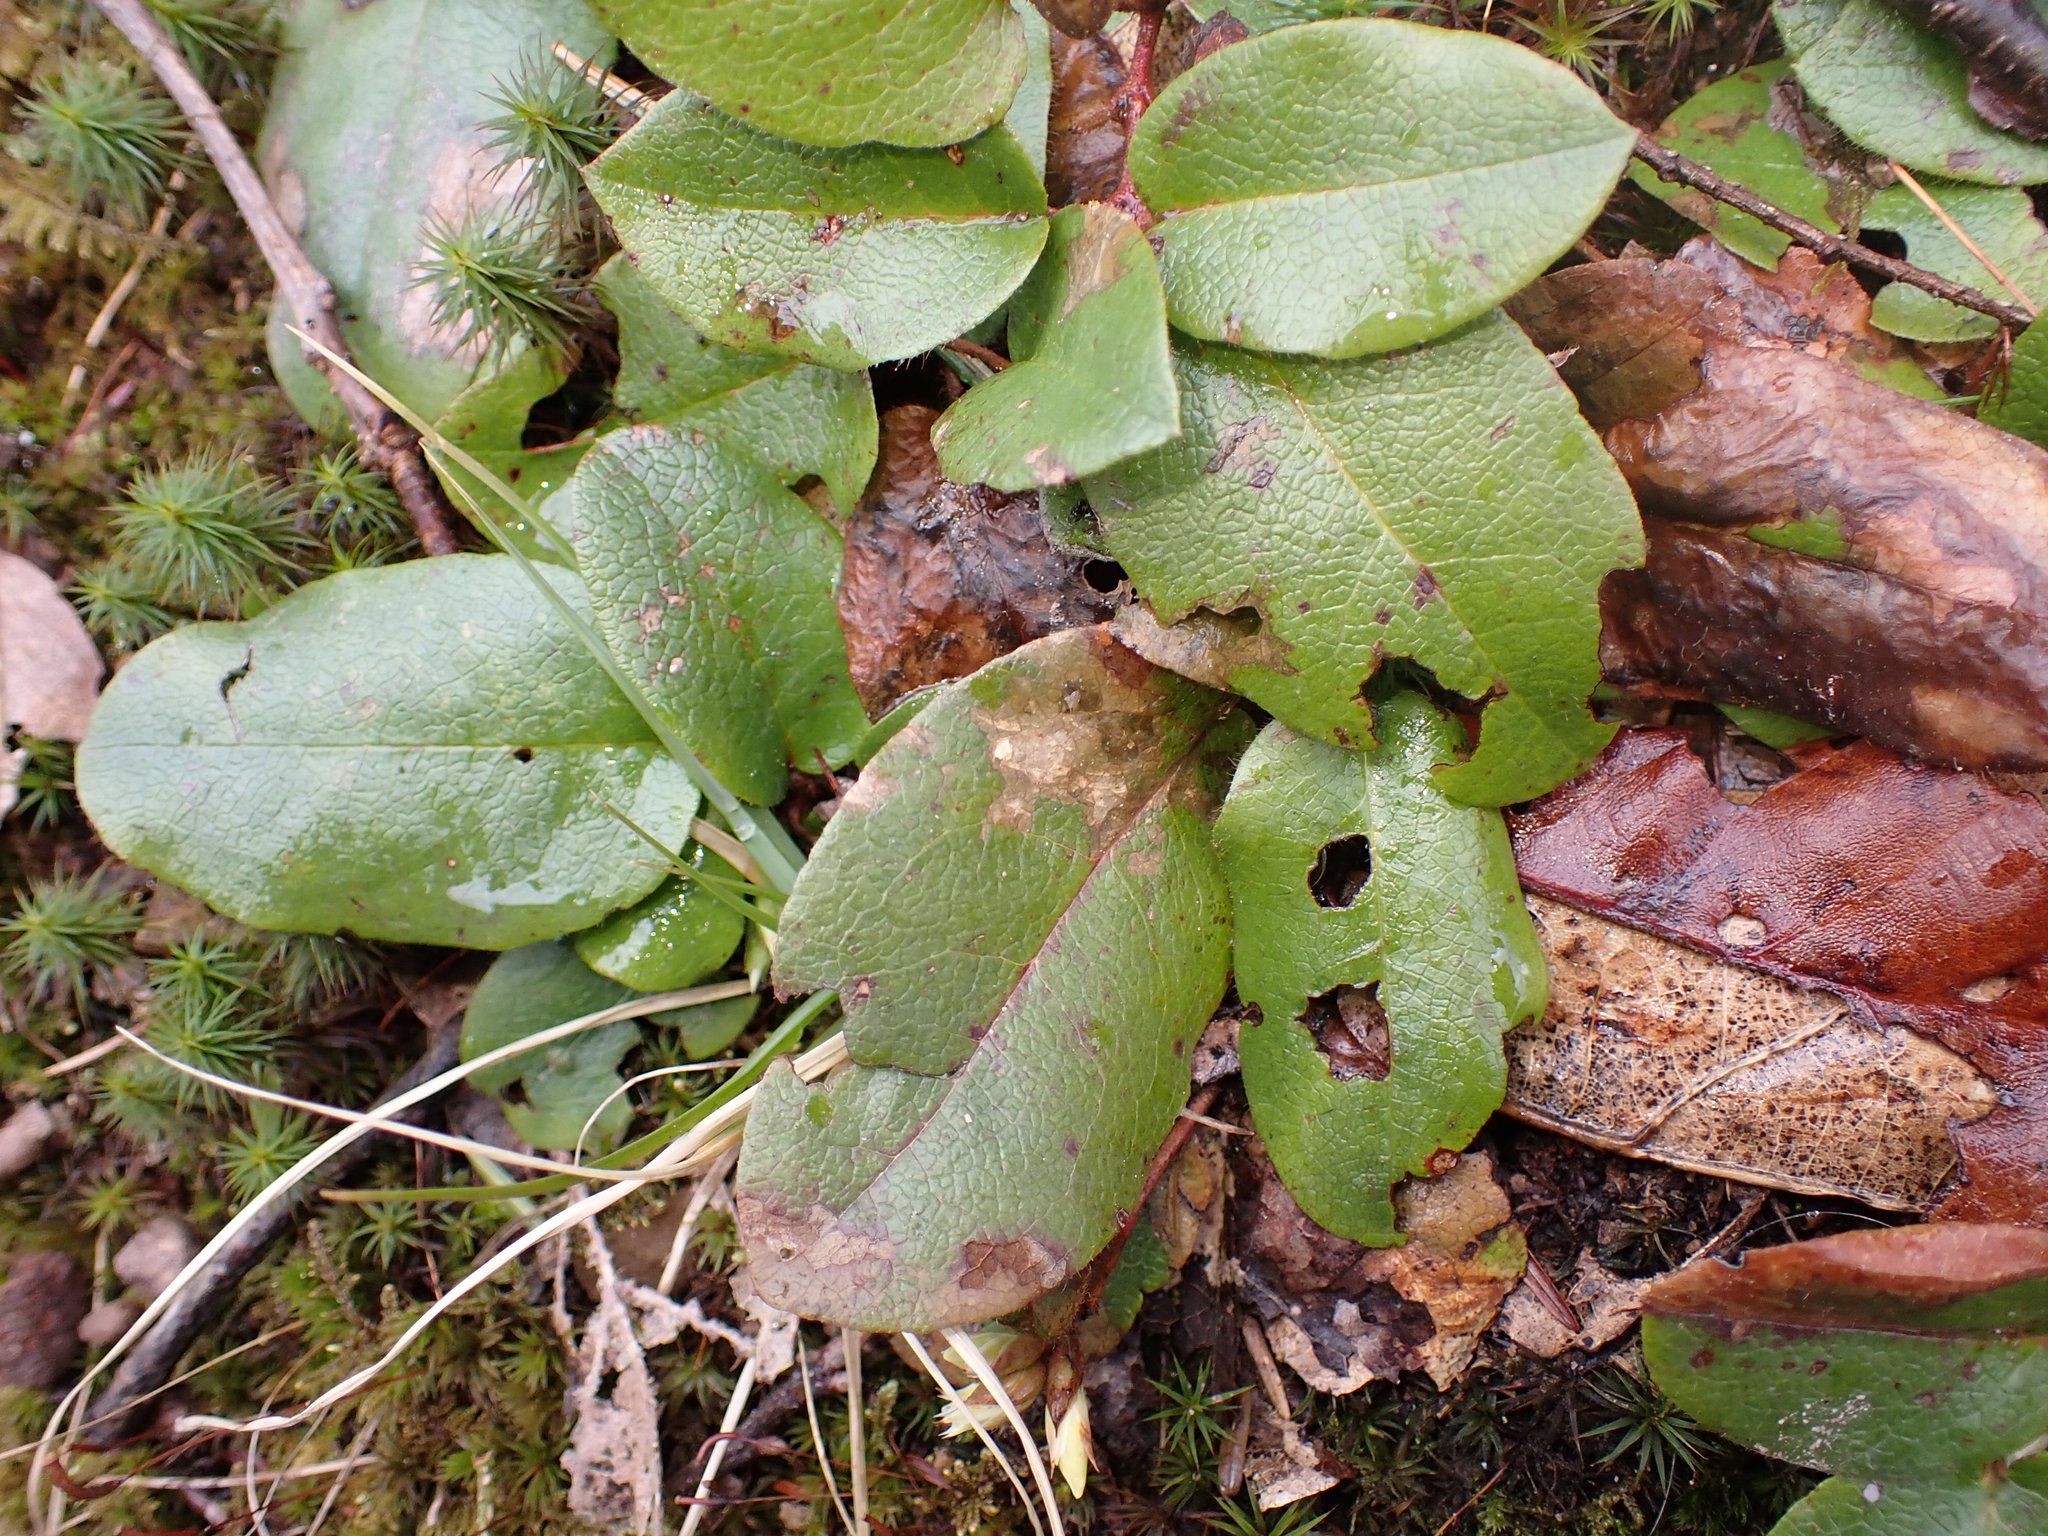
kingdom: Plantae
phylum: Tracheophyta
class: Magnoliopsida
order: Ericales
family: Ericaceae
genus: Epigaea
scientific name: Epigaea repens
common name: Gravelroot
